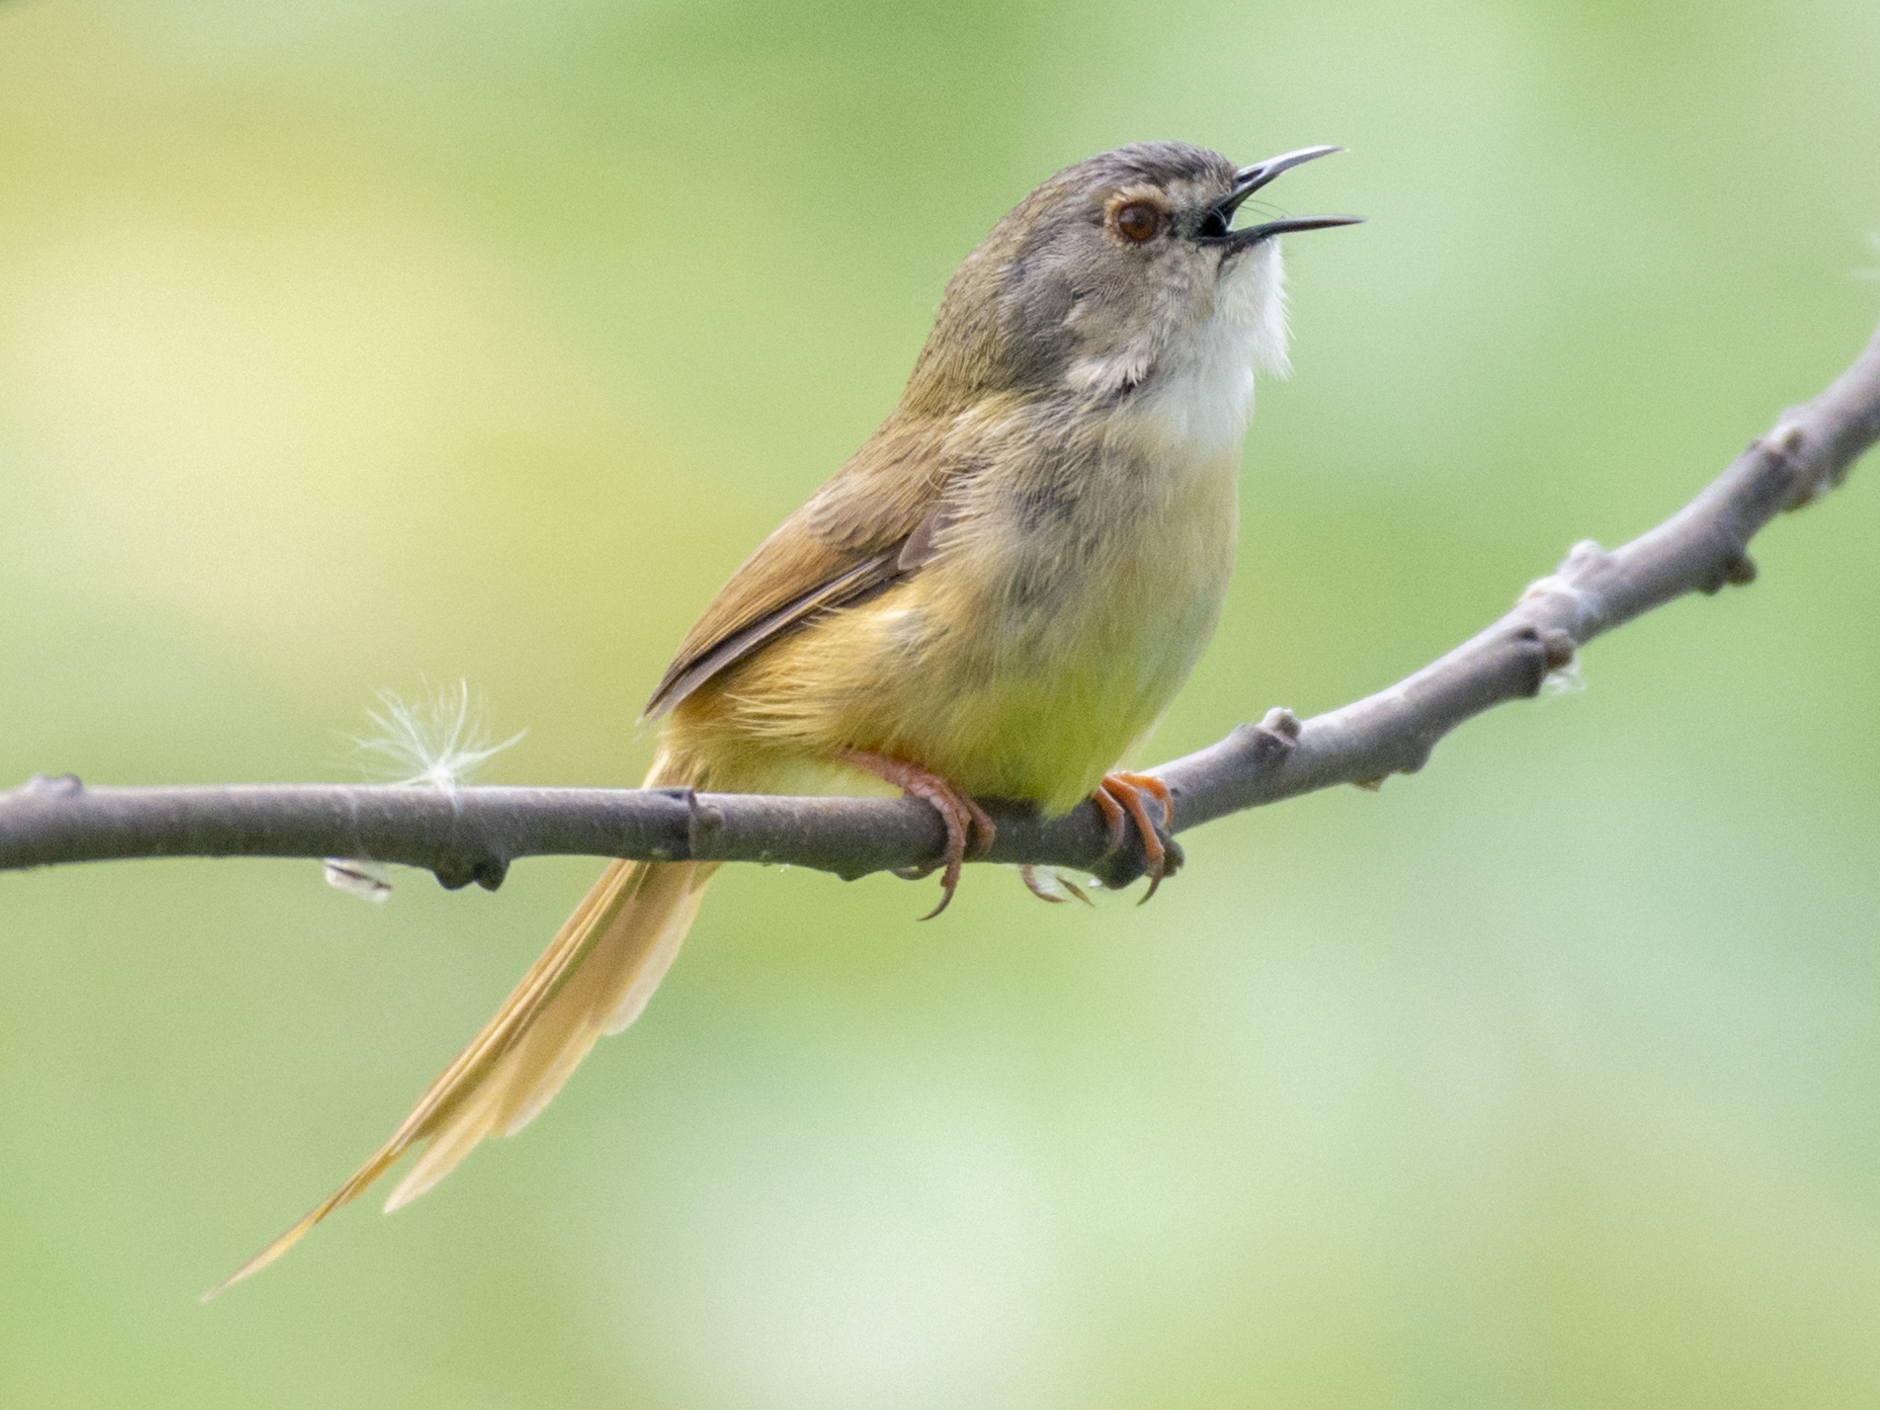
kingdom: Animalia
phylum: Chordata
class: Aves
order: Passeriformes
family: Cisticolidae
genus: Prinia
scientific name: Prinia flaviventris
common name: Yellow-bellied prinia
